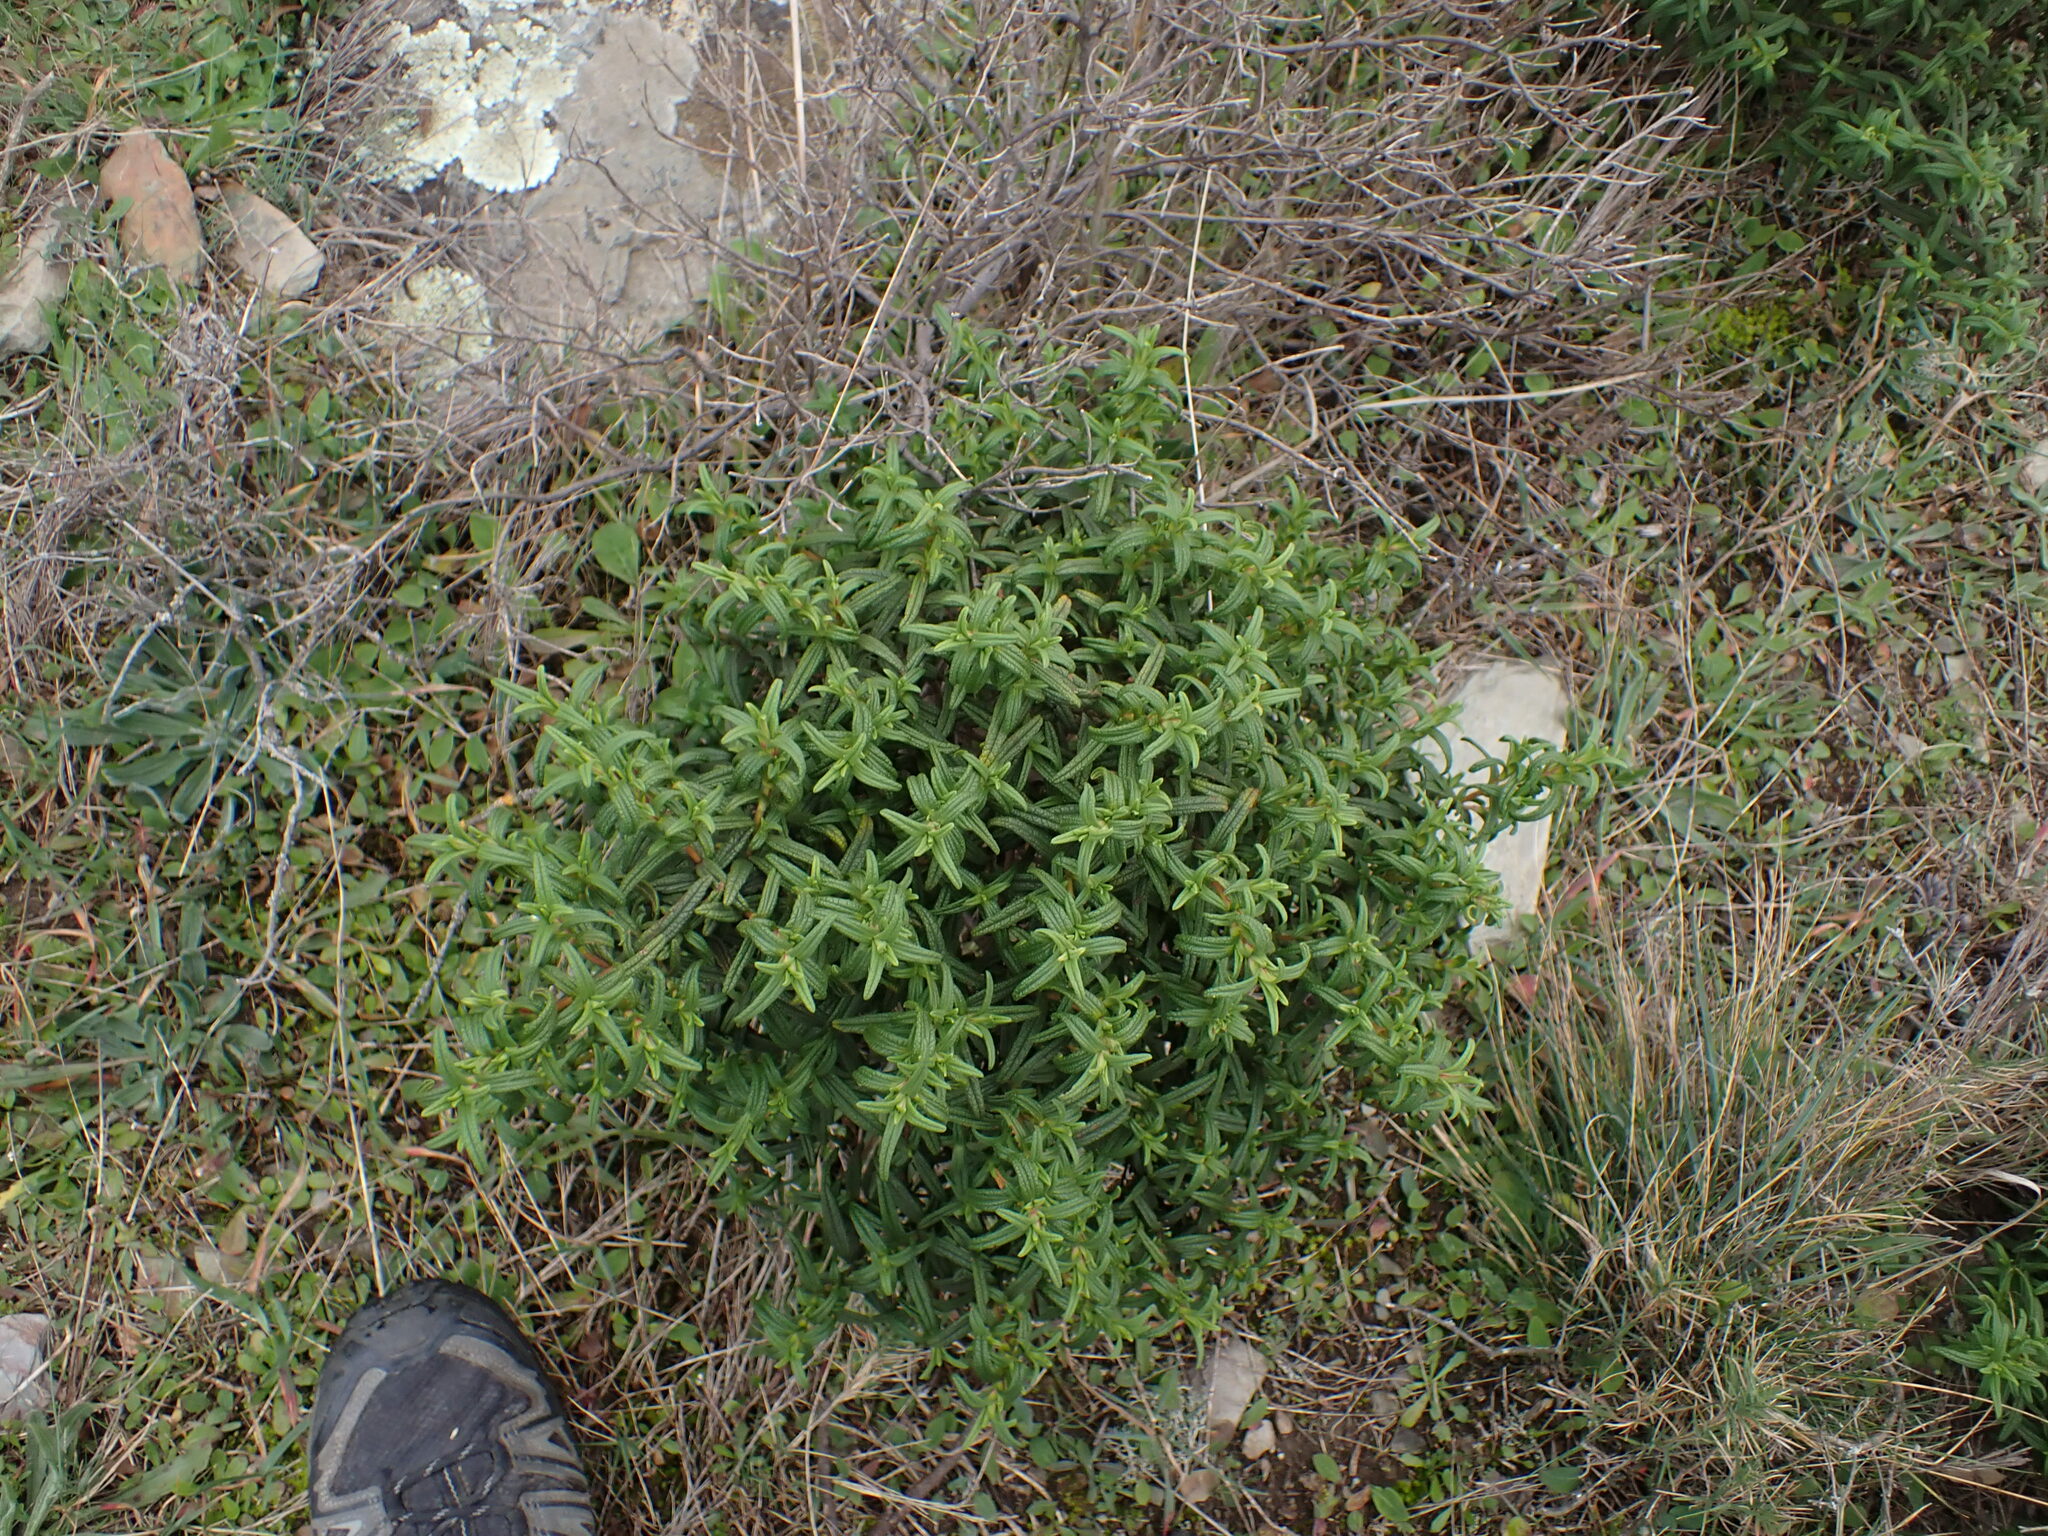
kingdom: Plantae
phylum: Tracheophyta
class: Magnoliopsida
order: Malvales
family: Cistaceae
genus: Cistus
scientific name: Cistus monspeliensis
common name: Montpelier cistus
